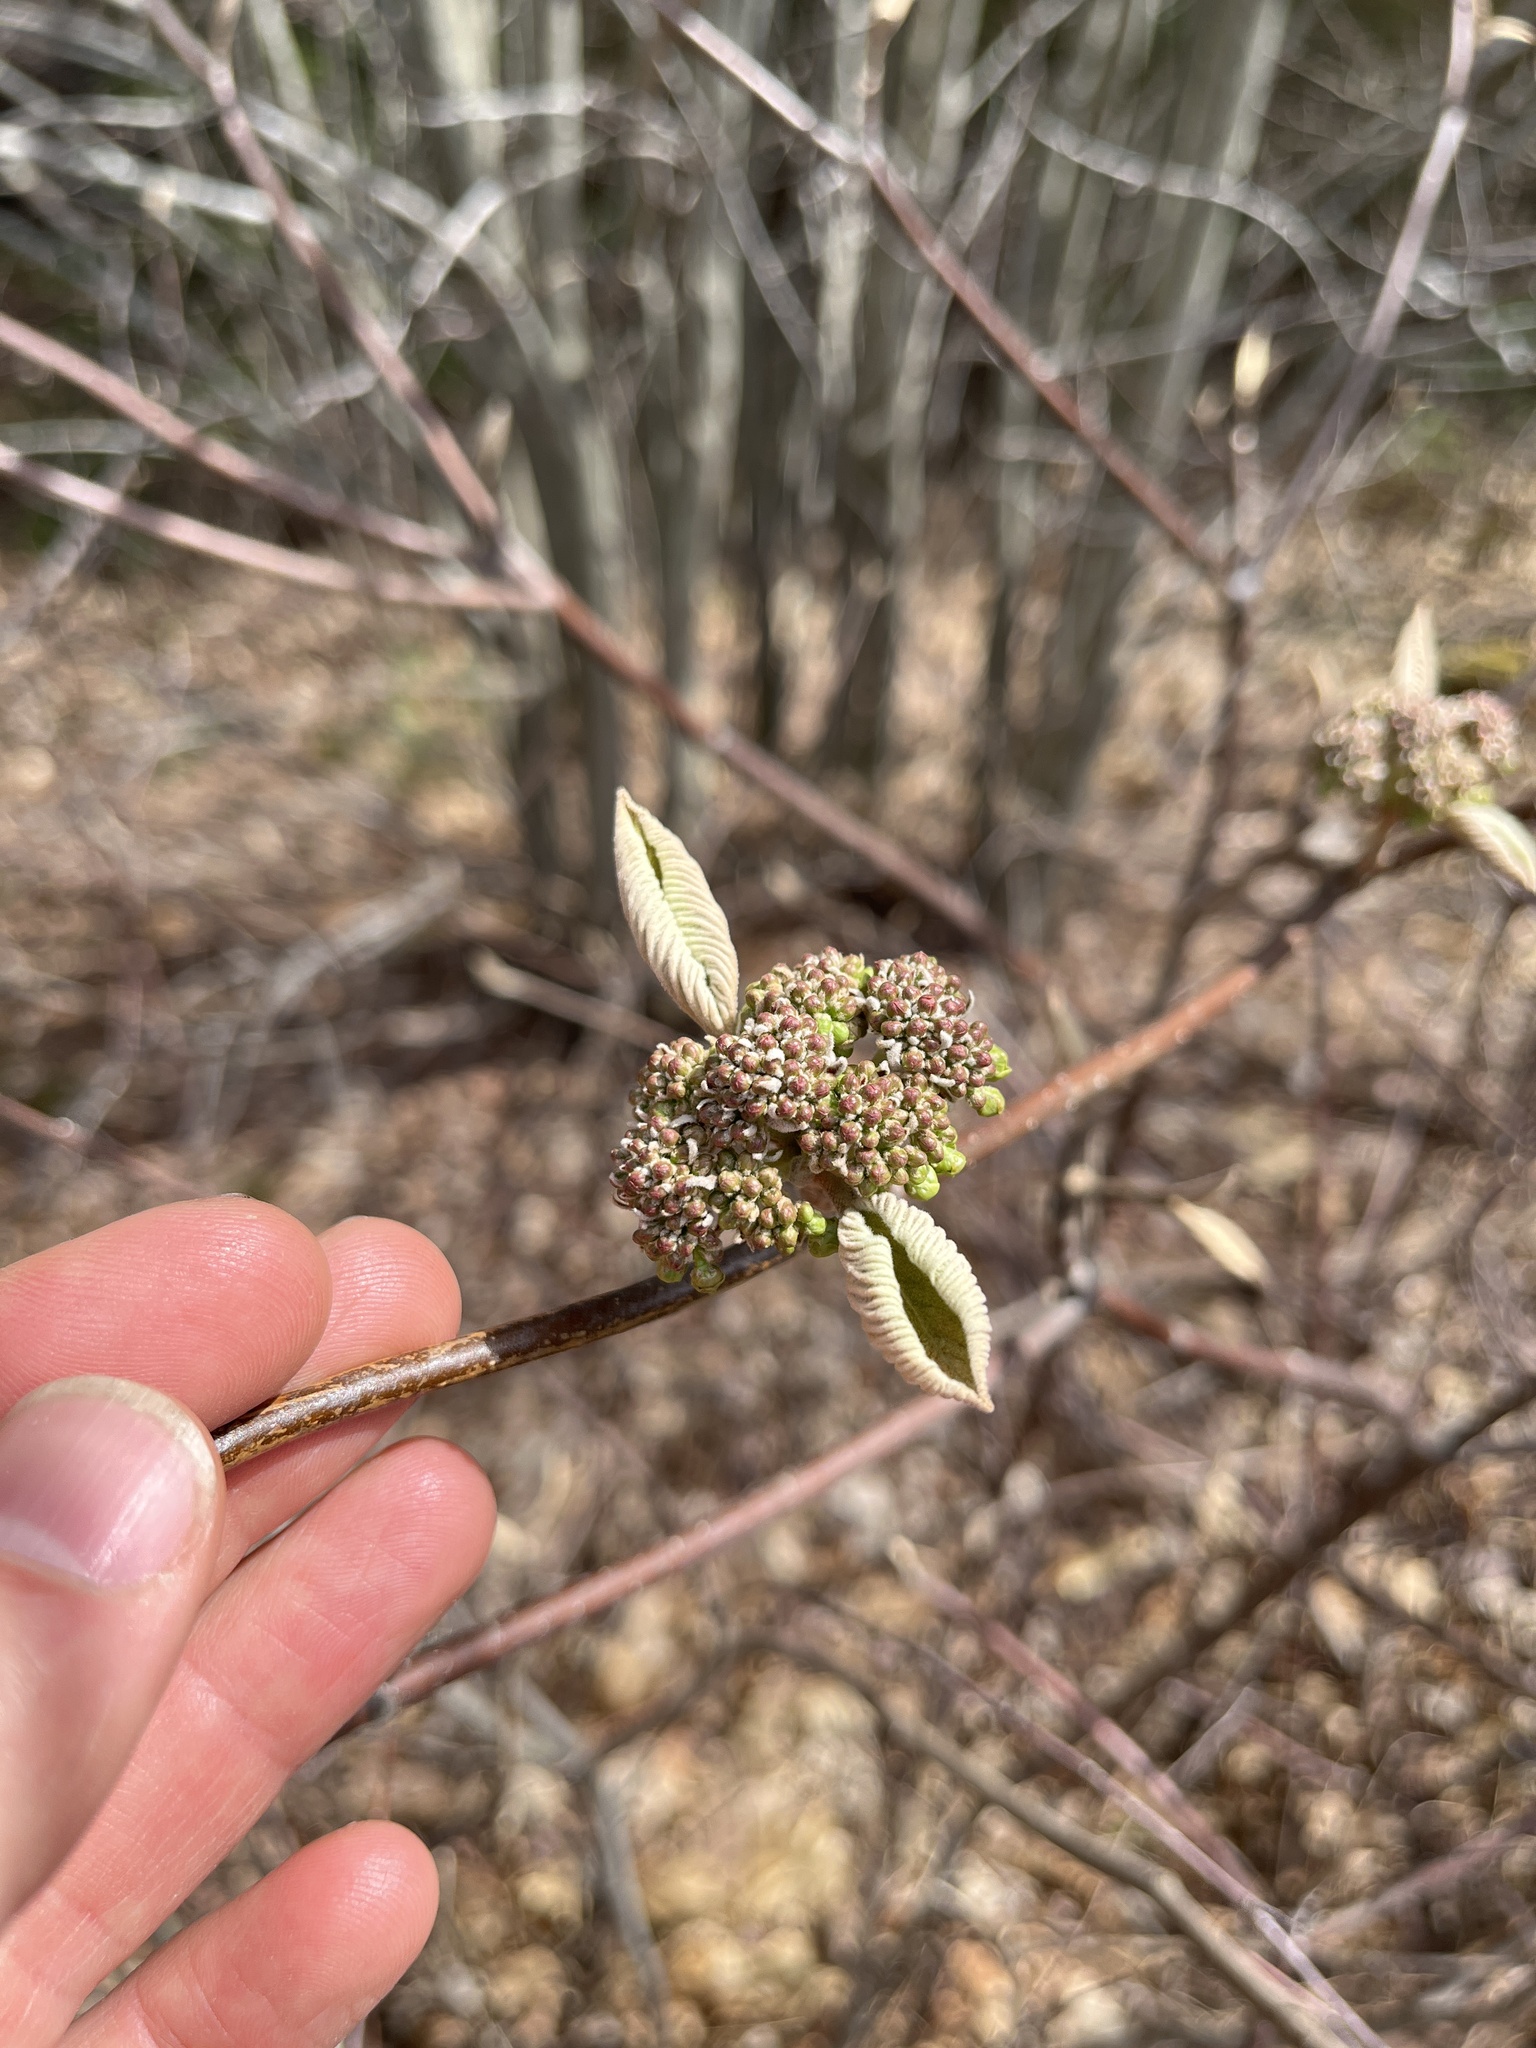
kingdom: Plantae
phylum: Tracheophyta
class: Magnoliopsida
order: Dipsacales
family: Viburnaceae
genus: Viburnum
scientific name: Viburnum lantanoides
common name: Hobblebush
